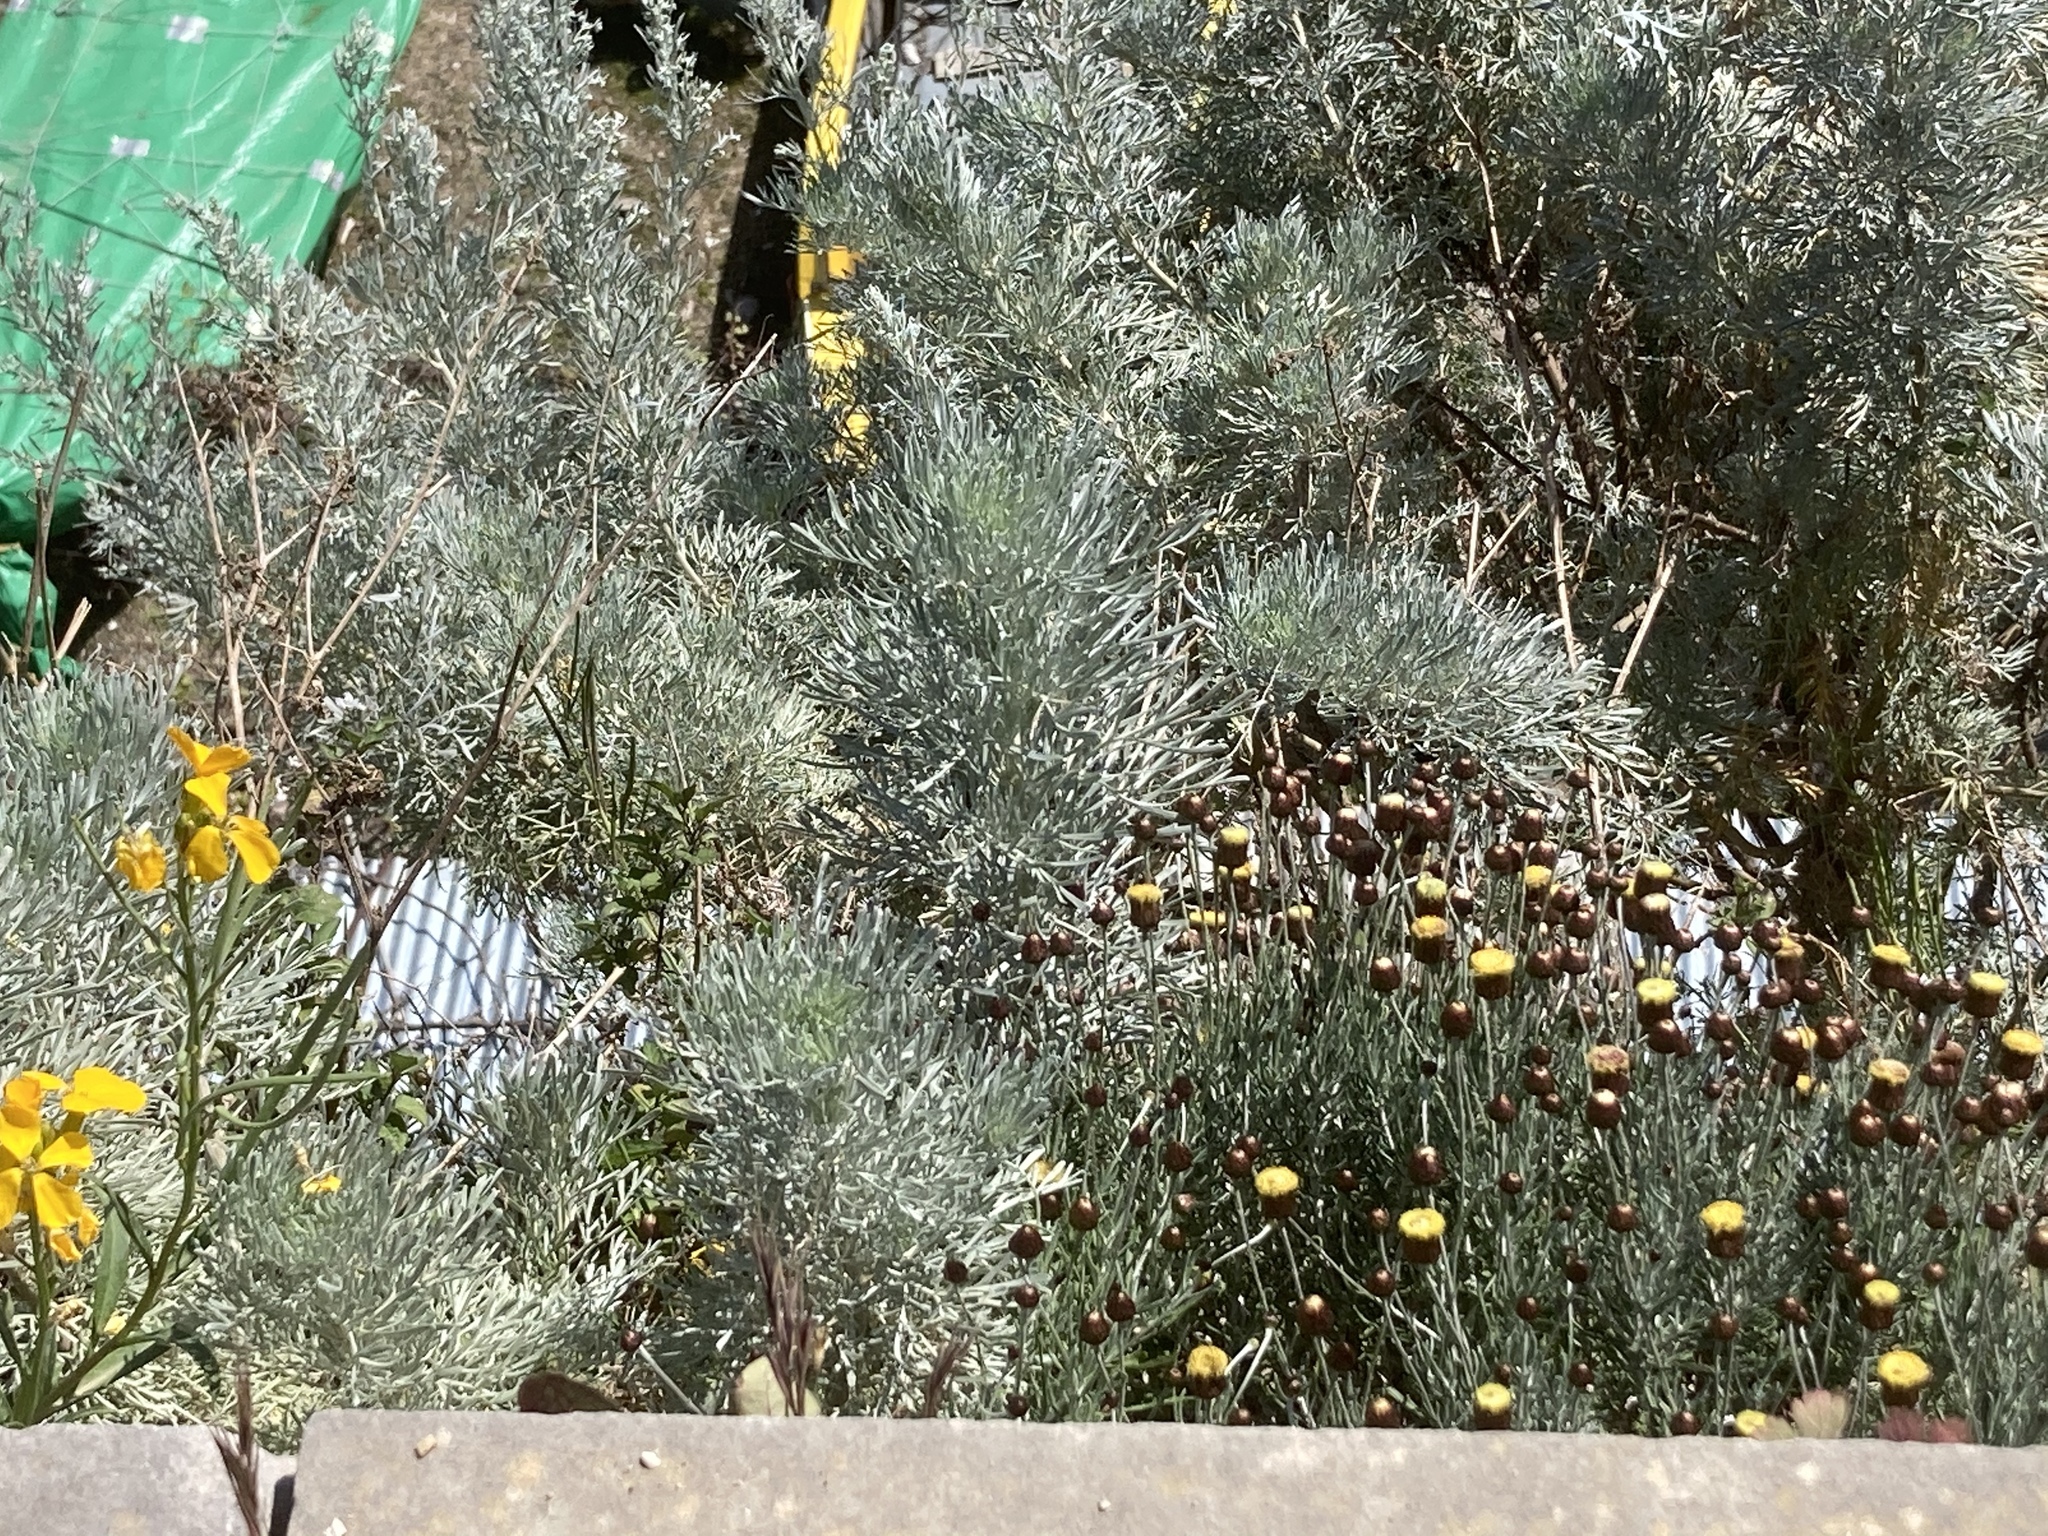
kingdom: Plantae
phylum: Tracheophyta
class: Magnoliopsida
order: Asterales
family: Asteraceae
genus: Phagnalon
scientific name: Phagnalon graecum
